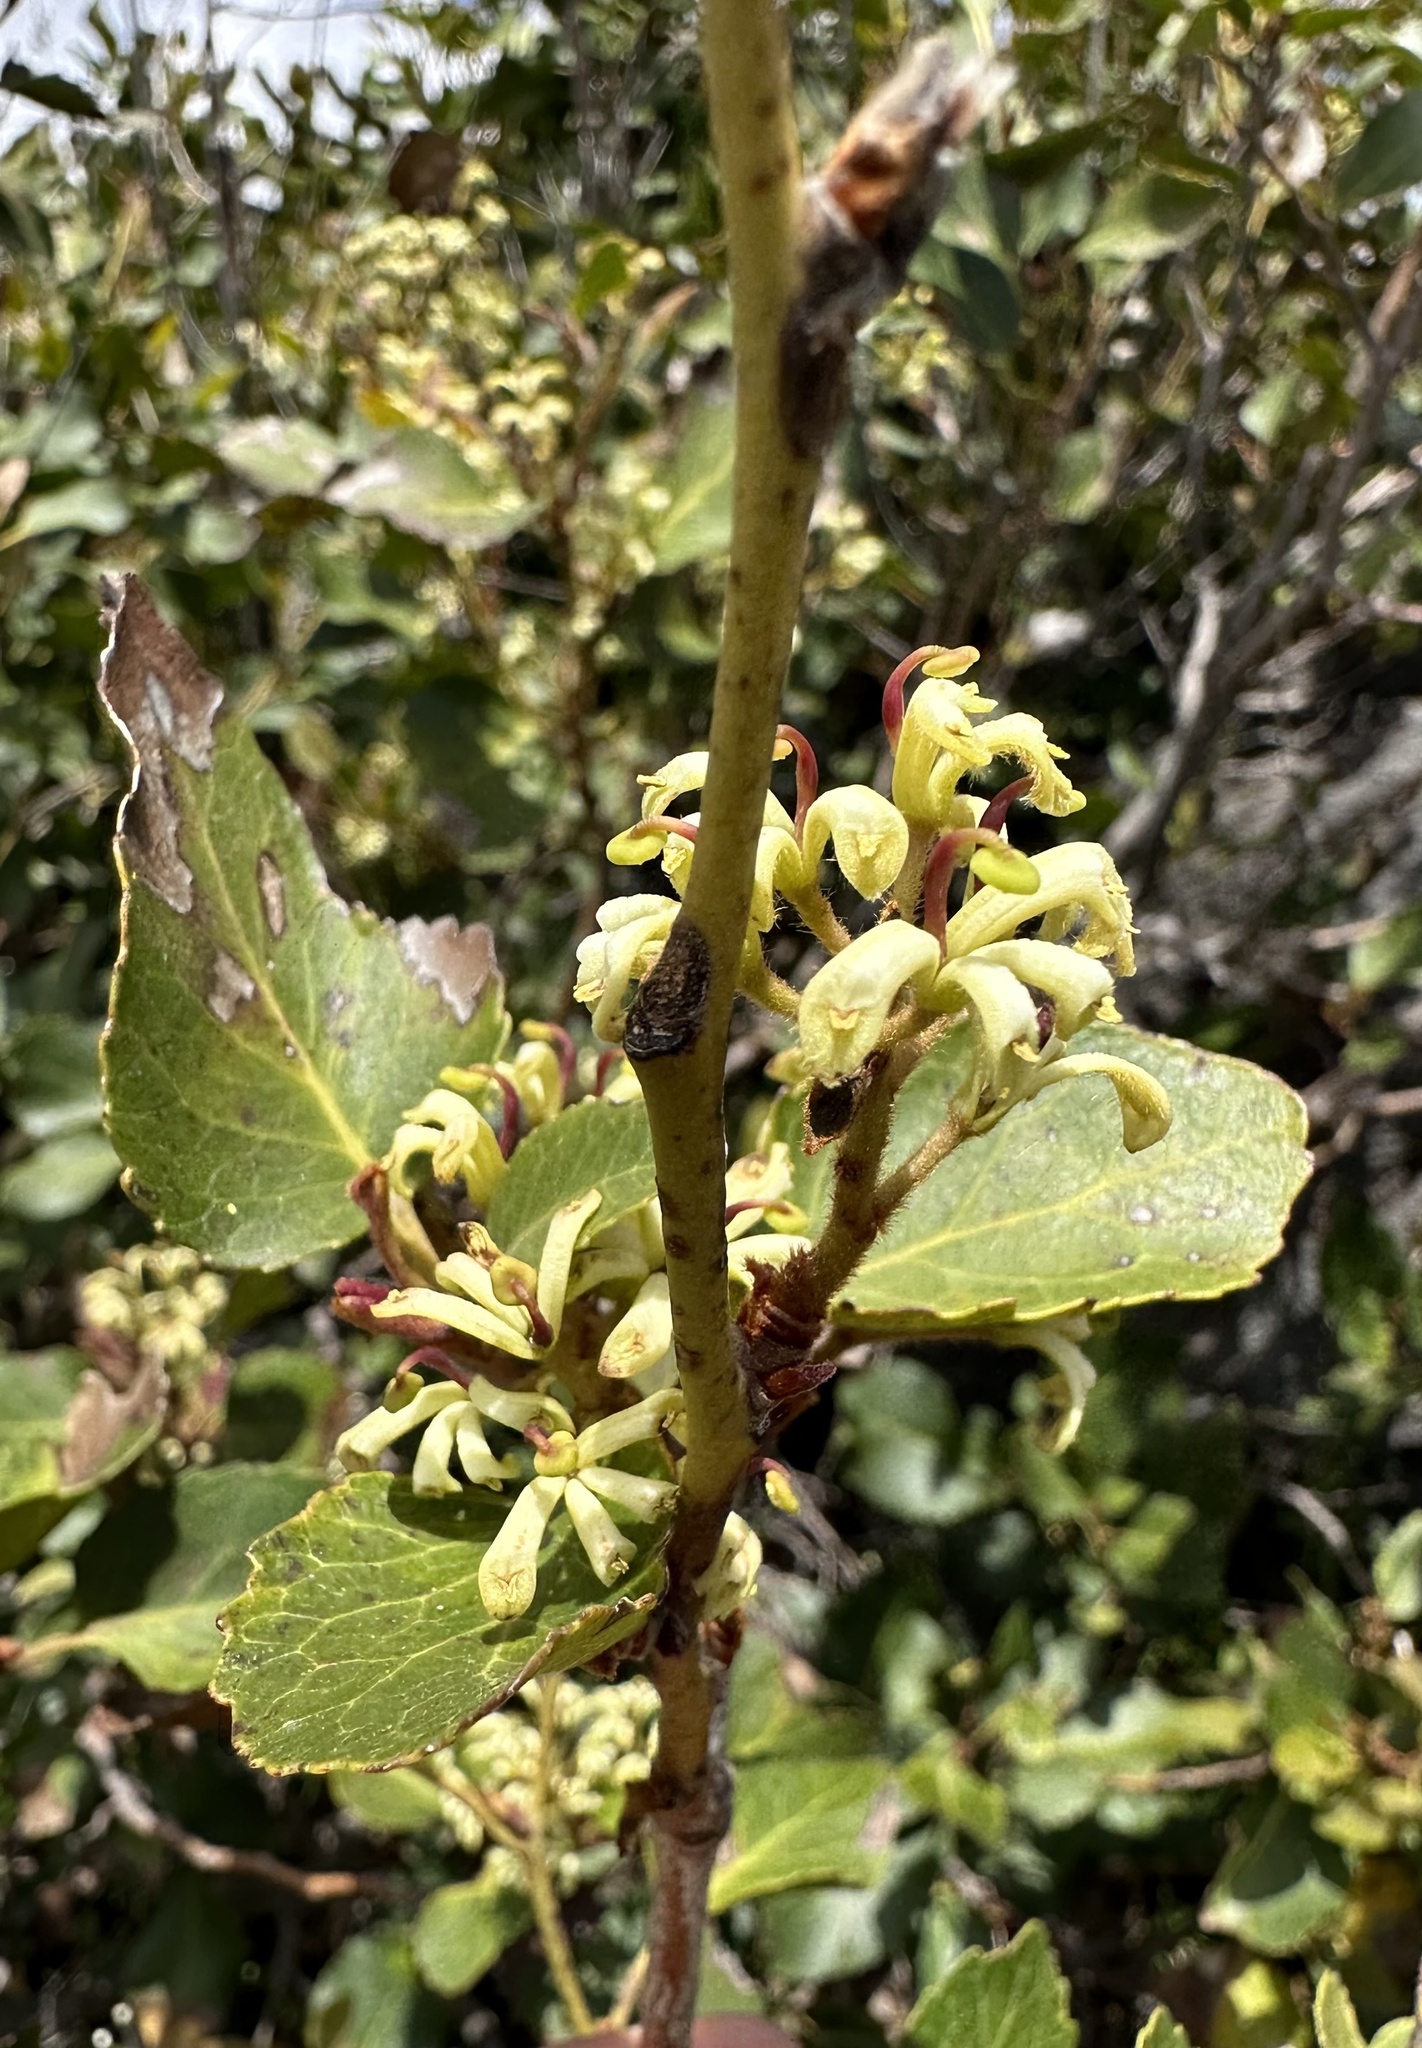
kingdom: Plantae
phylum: Tracheophyta
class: Magnoliopsida
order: Proteales
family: Proteaceae
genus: Lomatia
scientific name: Lomatia hirsuta
